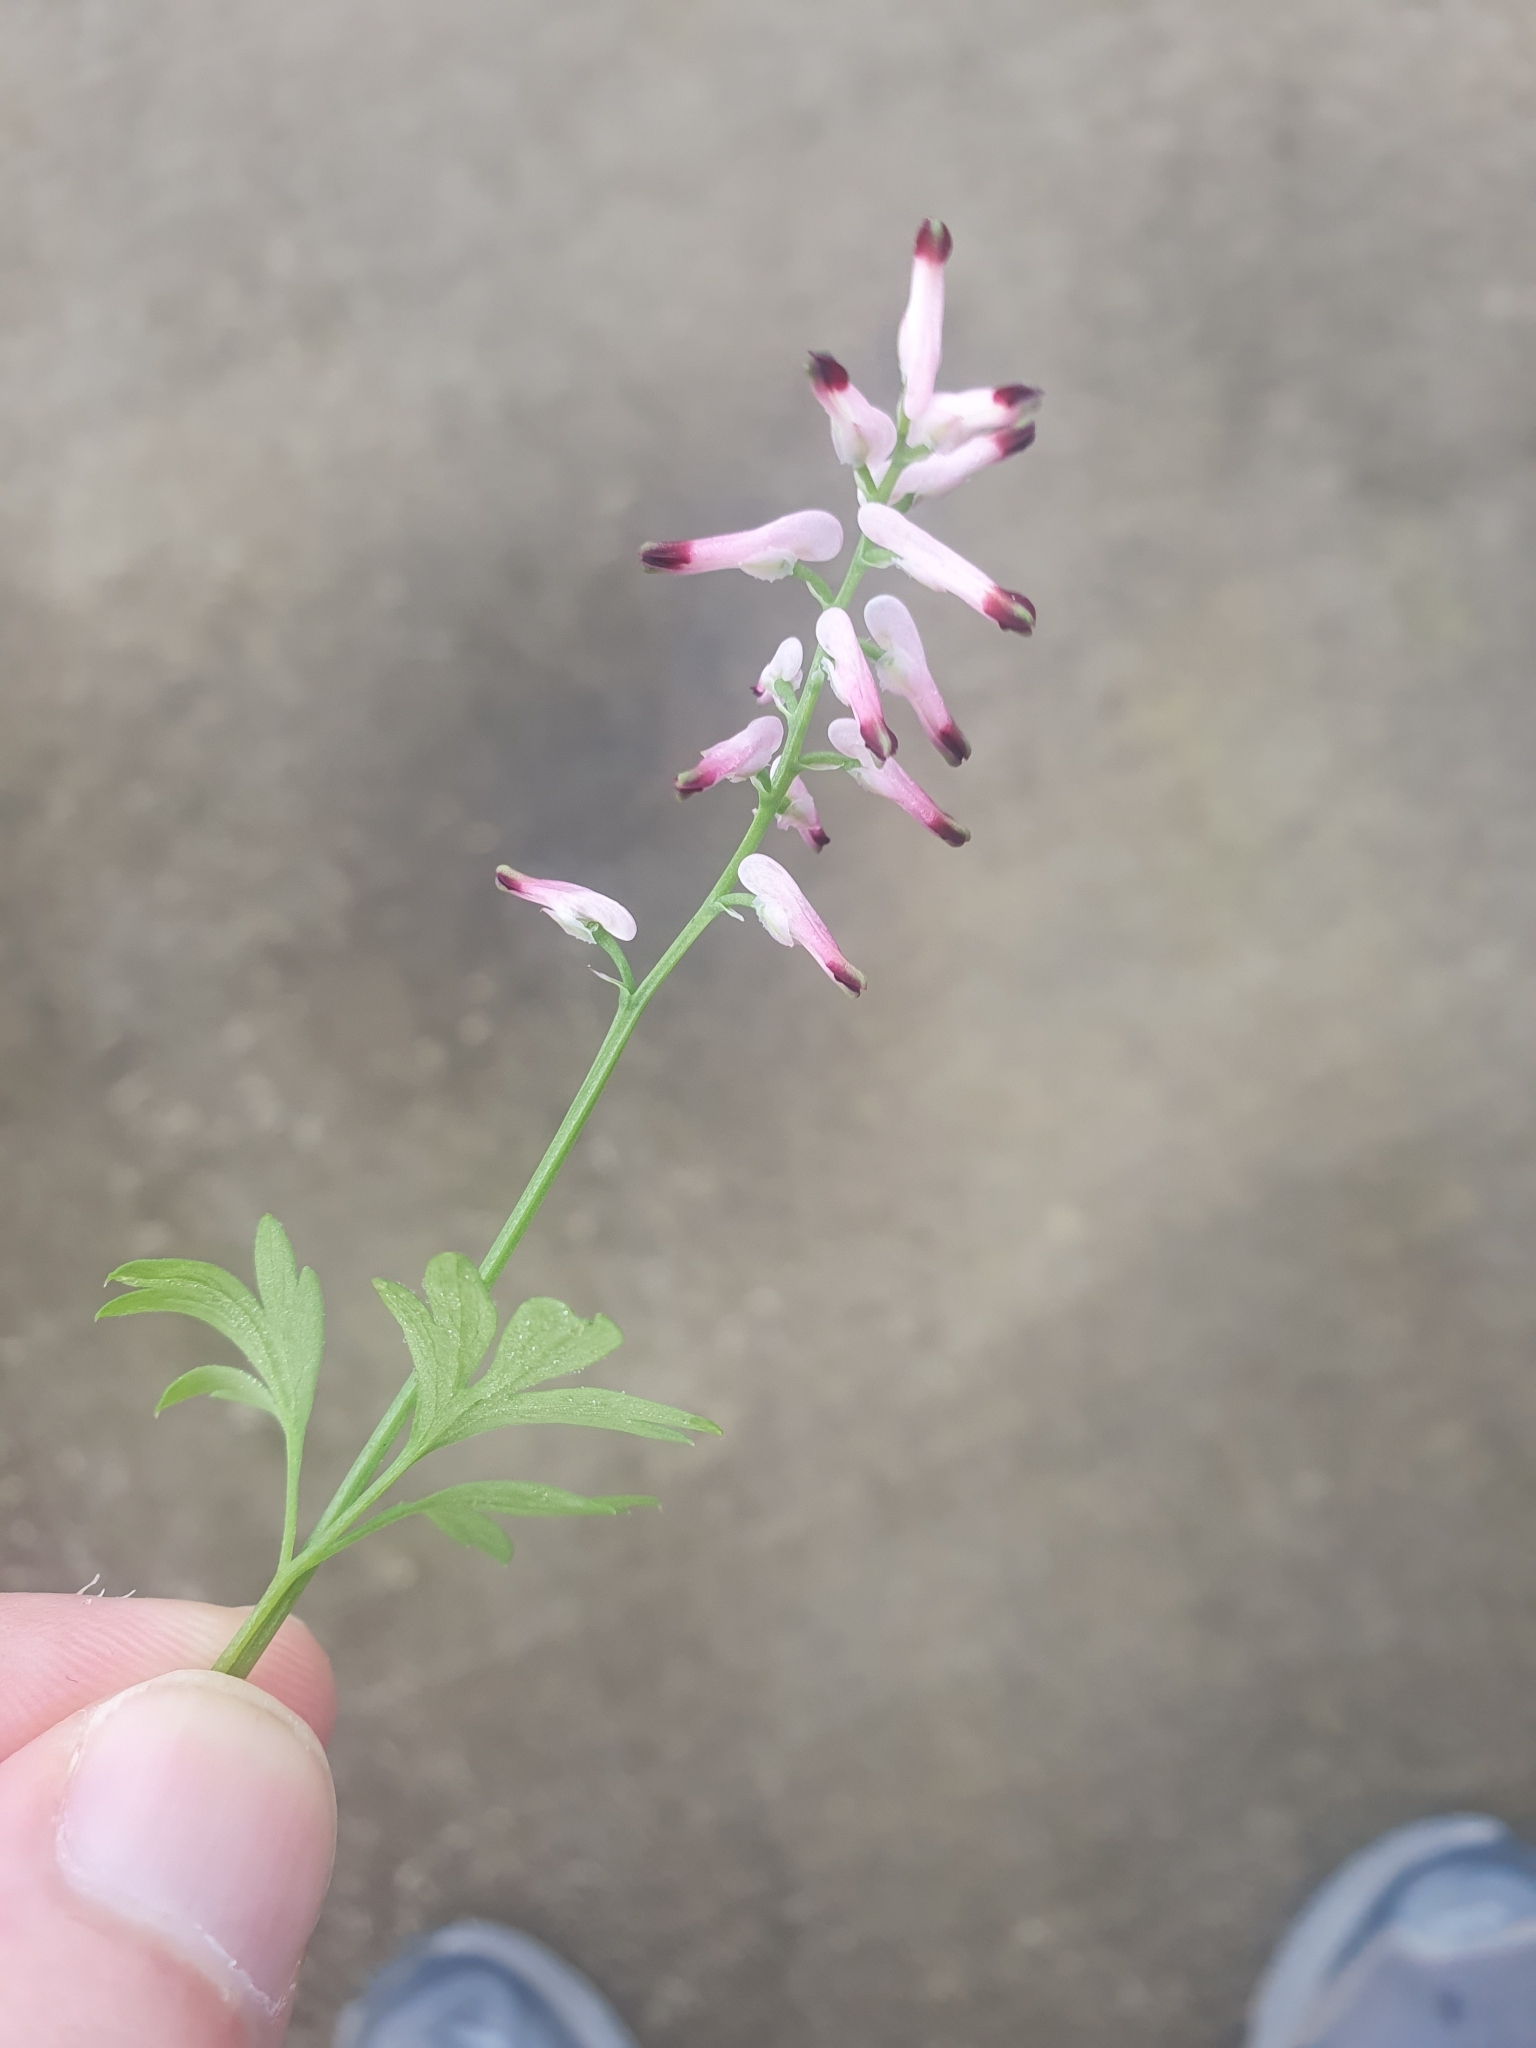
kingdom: Plantae
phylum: Tracheophyta
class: Magnoliopsida
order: Ranunculales
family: Papaveraceae
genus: Fumaria
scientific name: Fumaria muralis
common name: Common ramping-fumitory
